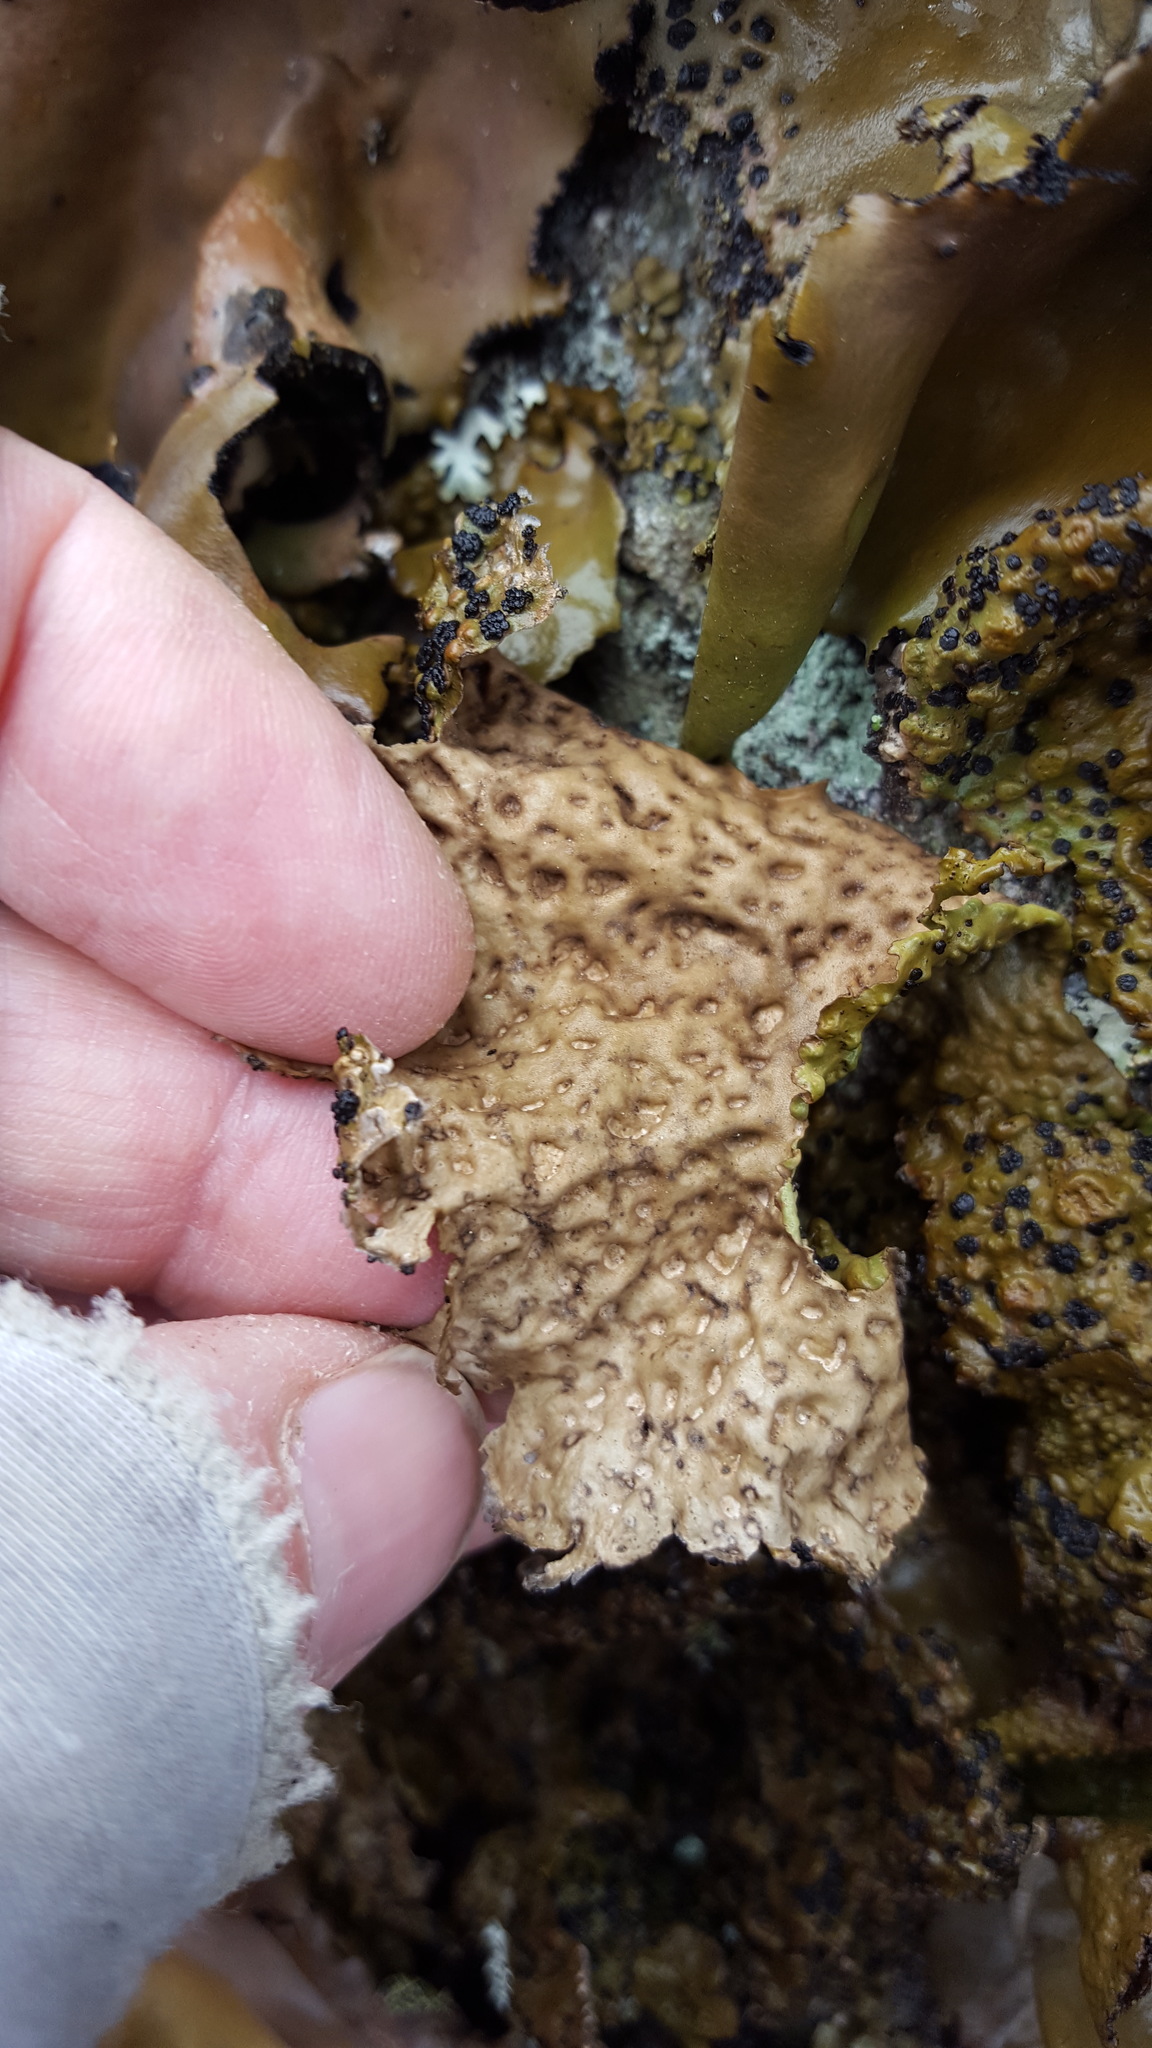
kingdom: Fungi
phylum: Ascomycota
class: Lecanoromycetes
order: Umbilicariales
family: Umbilicariaceae
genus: Umbilicaria
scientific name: Umbilicaria muhlenbergii
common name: Lesser rocktripe
